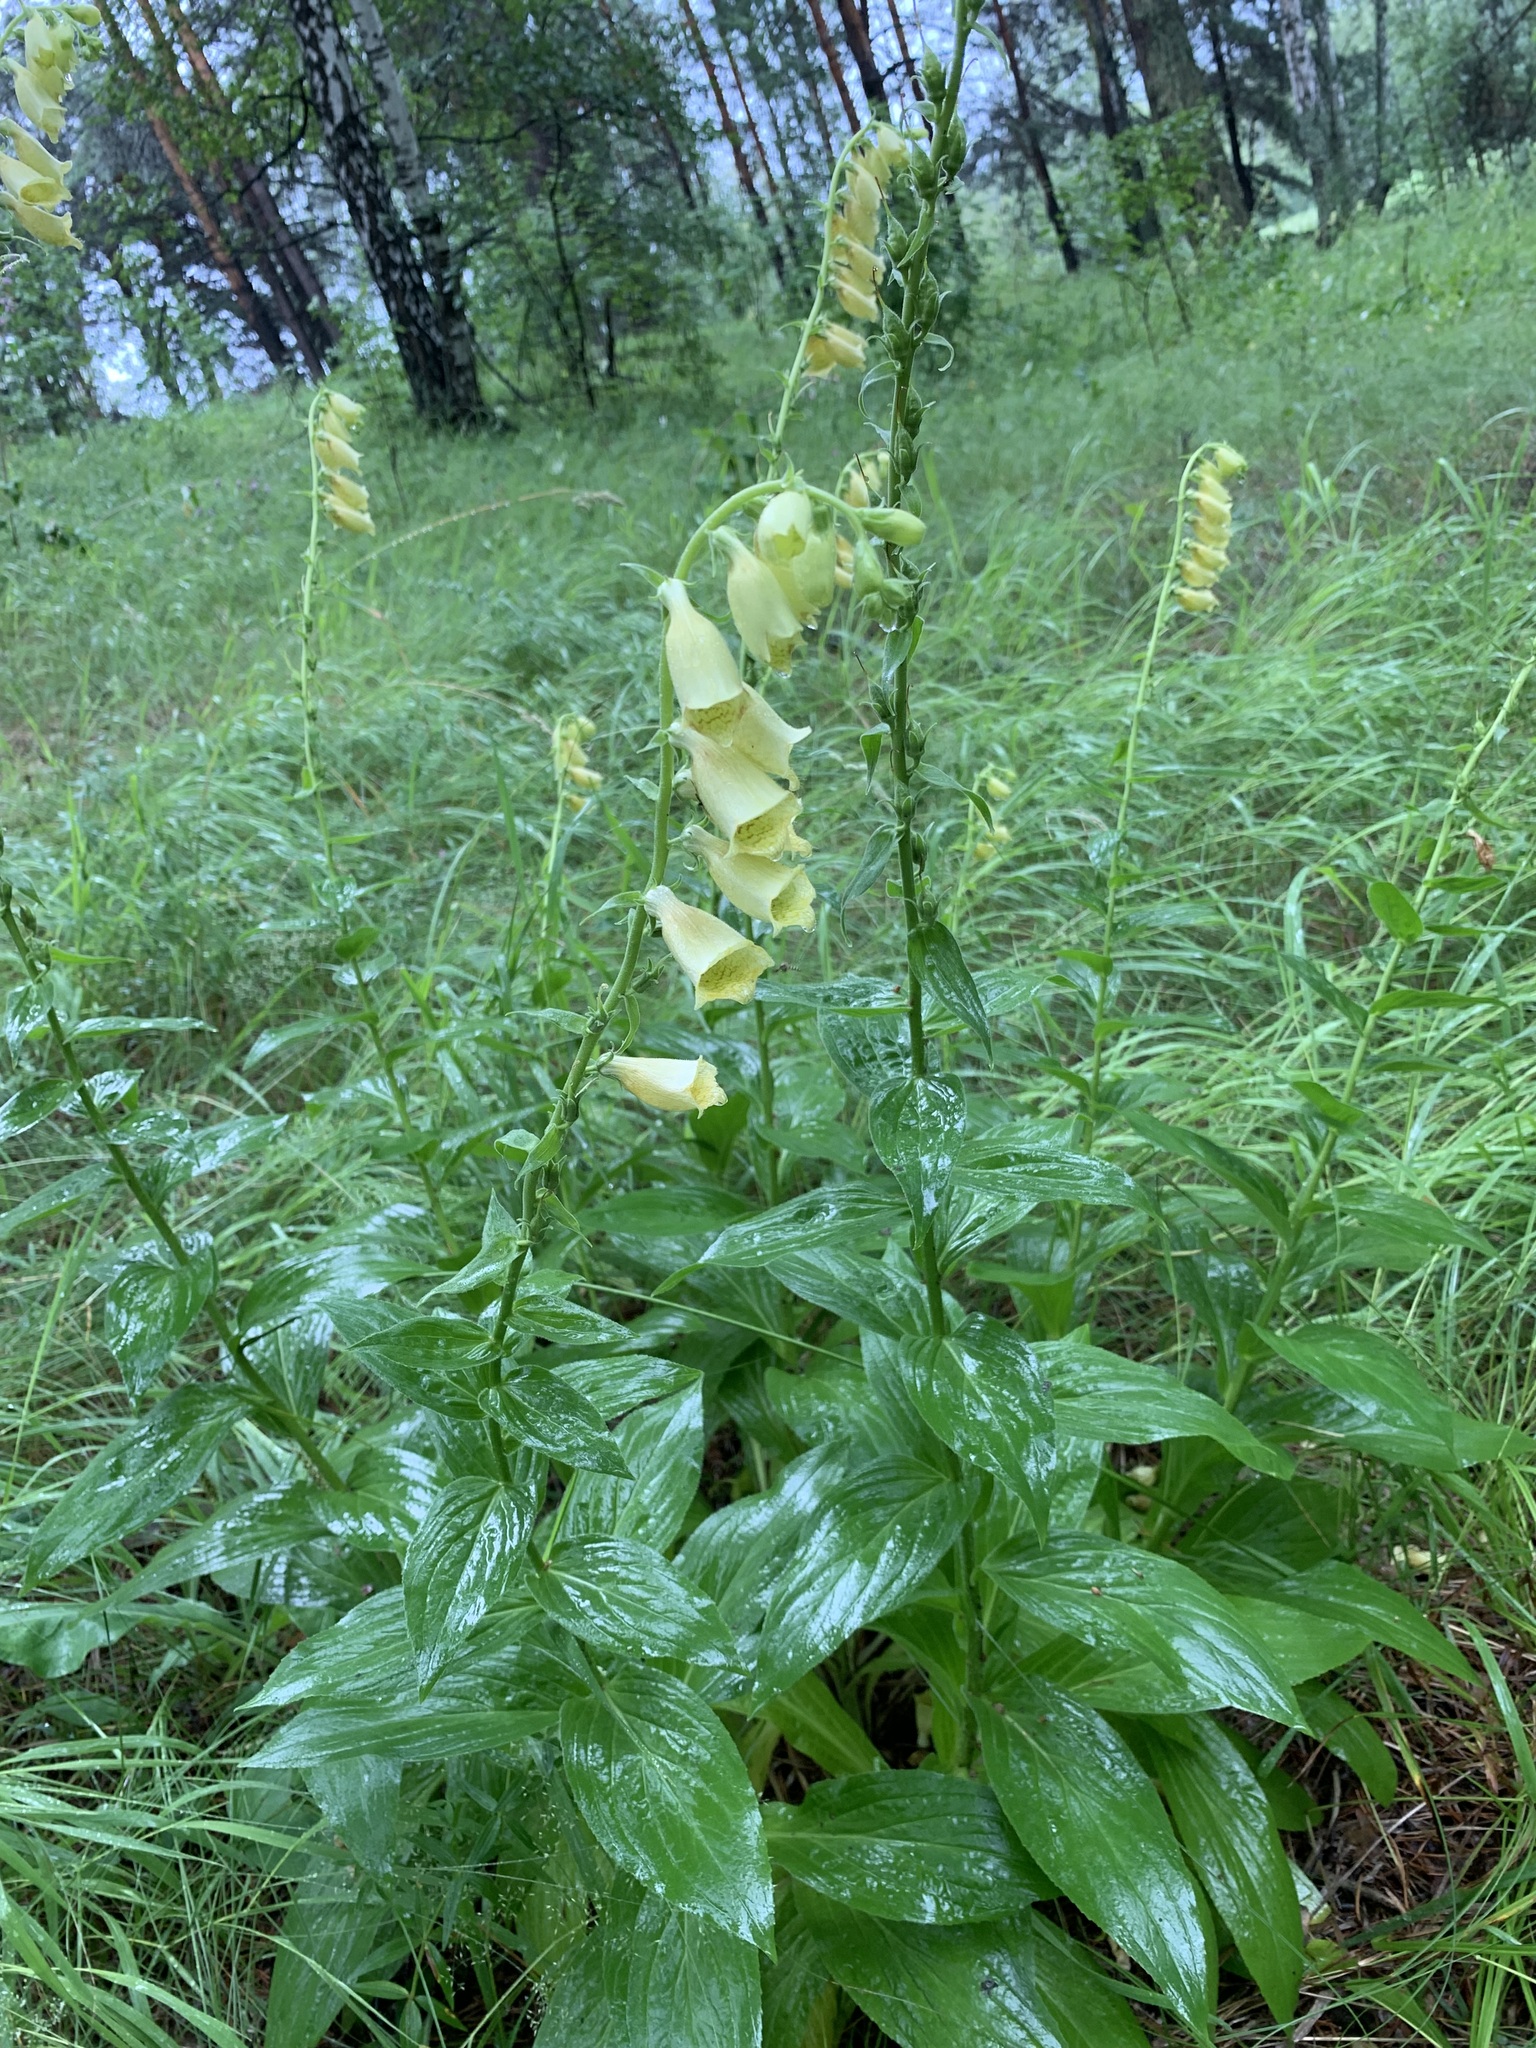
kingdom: Plantae
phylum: Tracheophyta
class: Magnoliopsida
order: Lamiales
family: Plantaginaceae
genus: Digitalis
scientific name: Digitalis grandiflora
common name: Yellow foxglove
